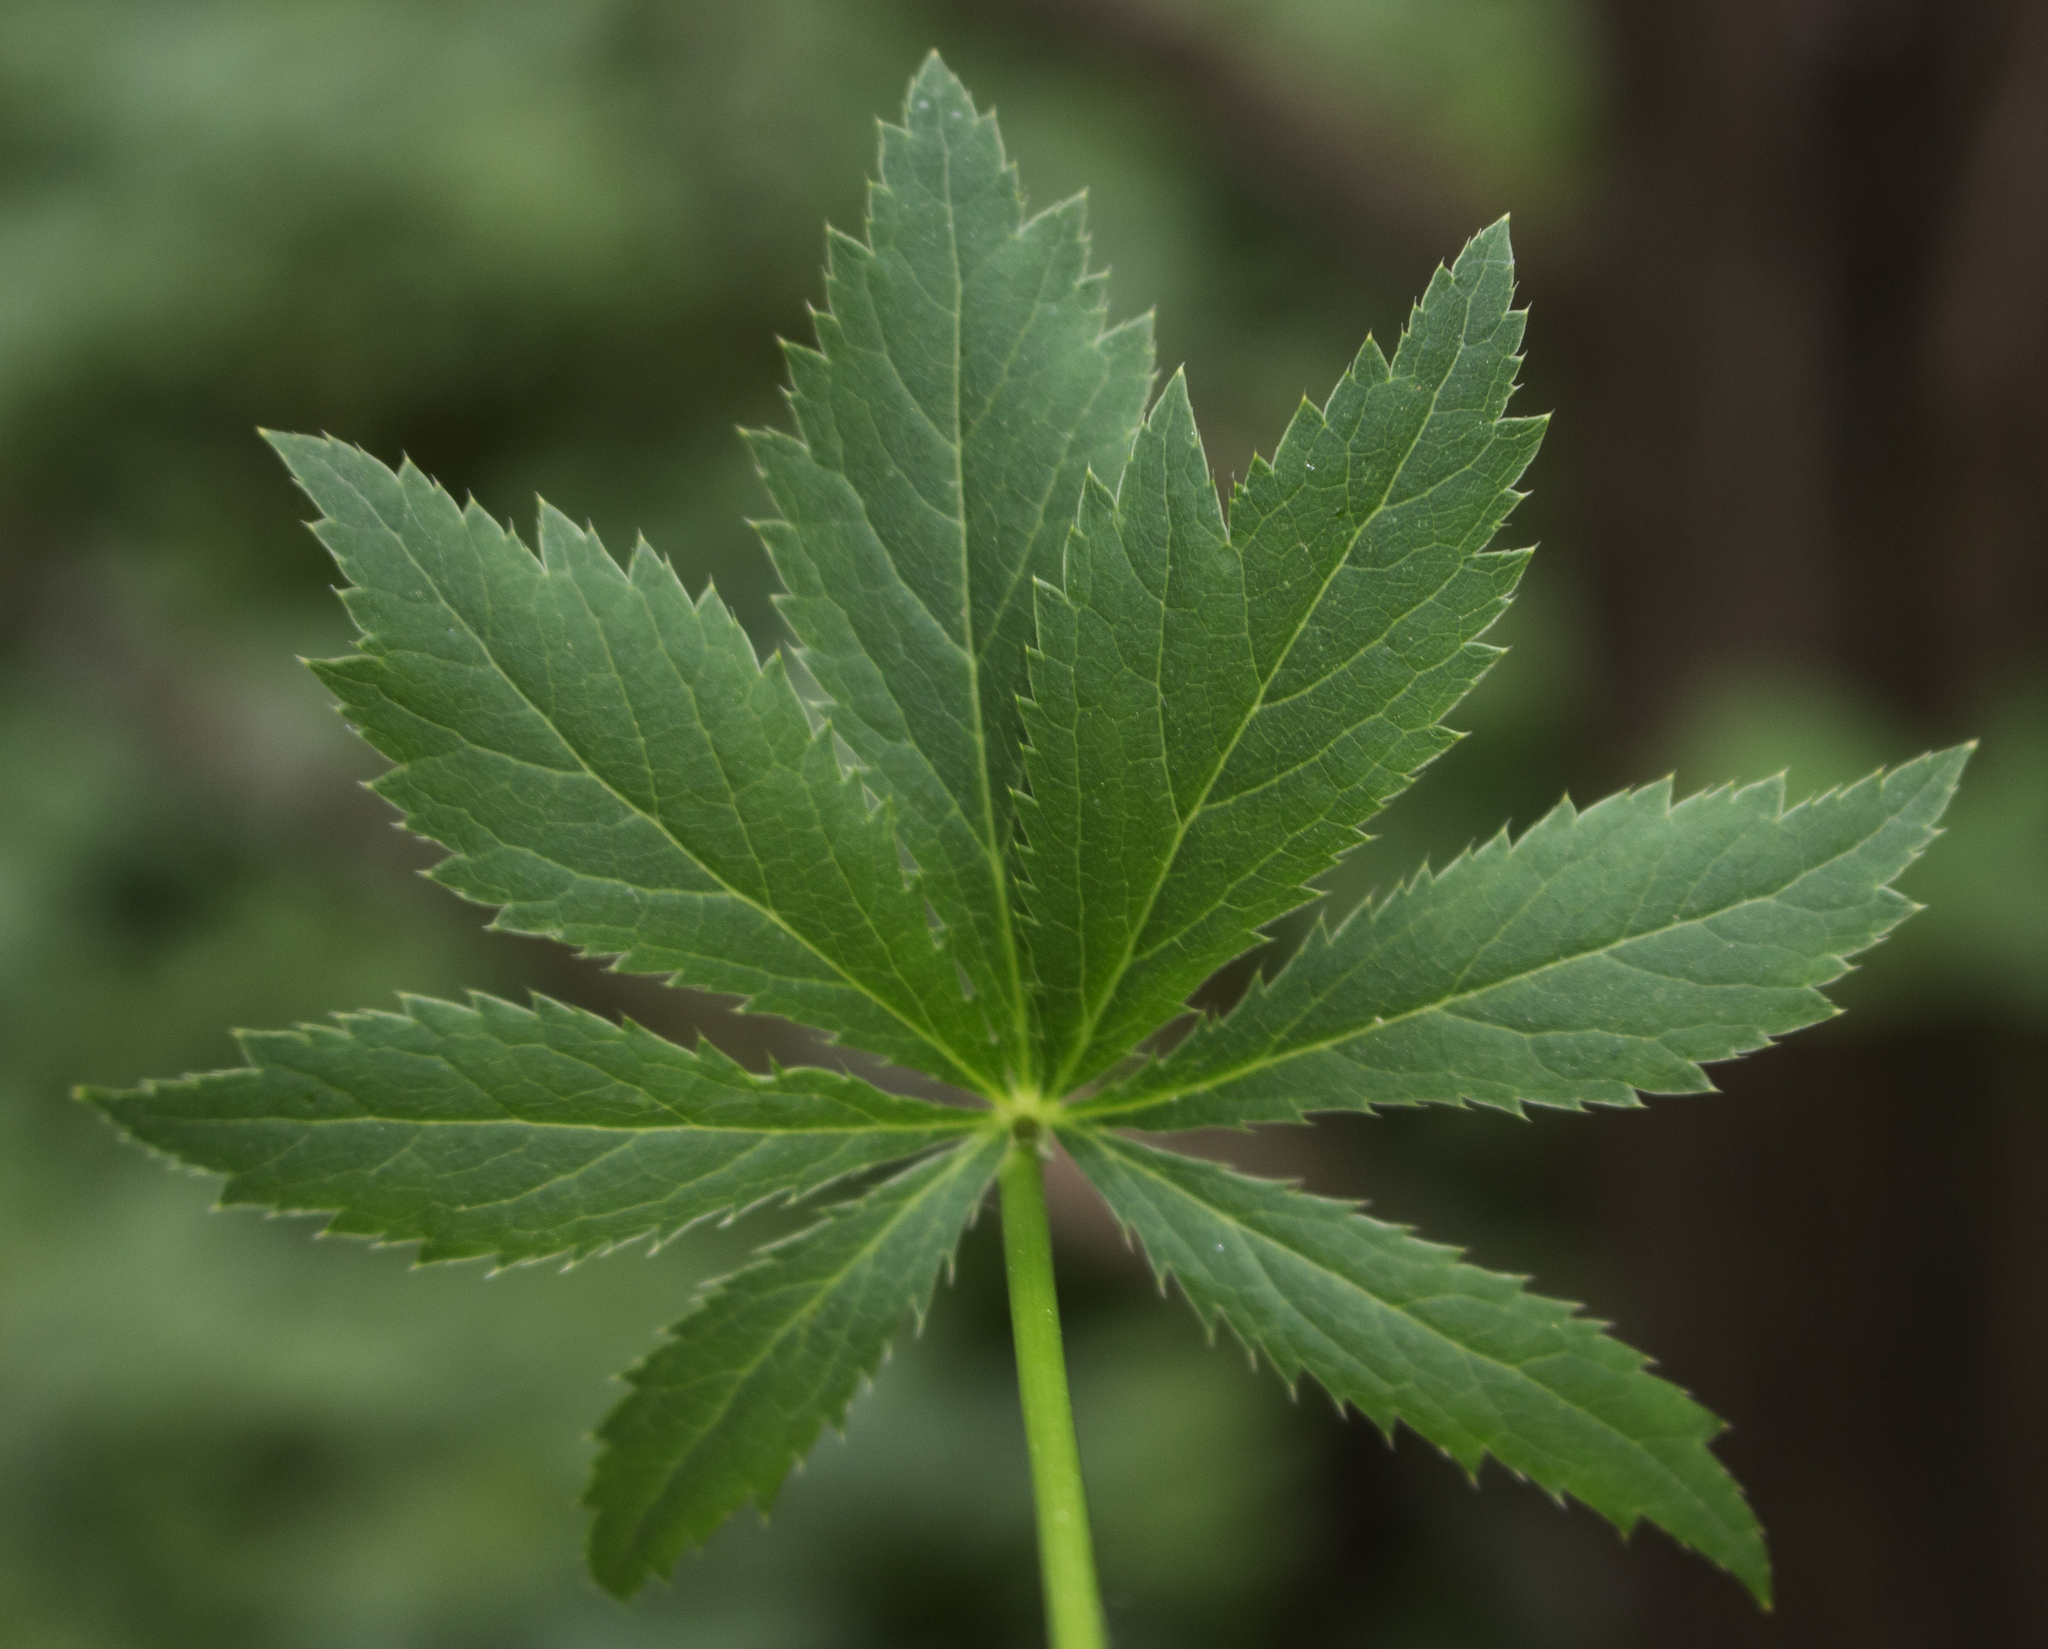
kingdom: Plantae
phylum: Tracheophyta
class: Magnoliopsida
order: Apiales
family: Apiaceae
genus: Sanicula
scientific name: Sanicula odorata
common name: Cluster sanicle
